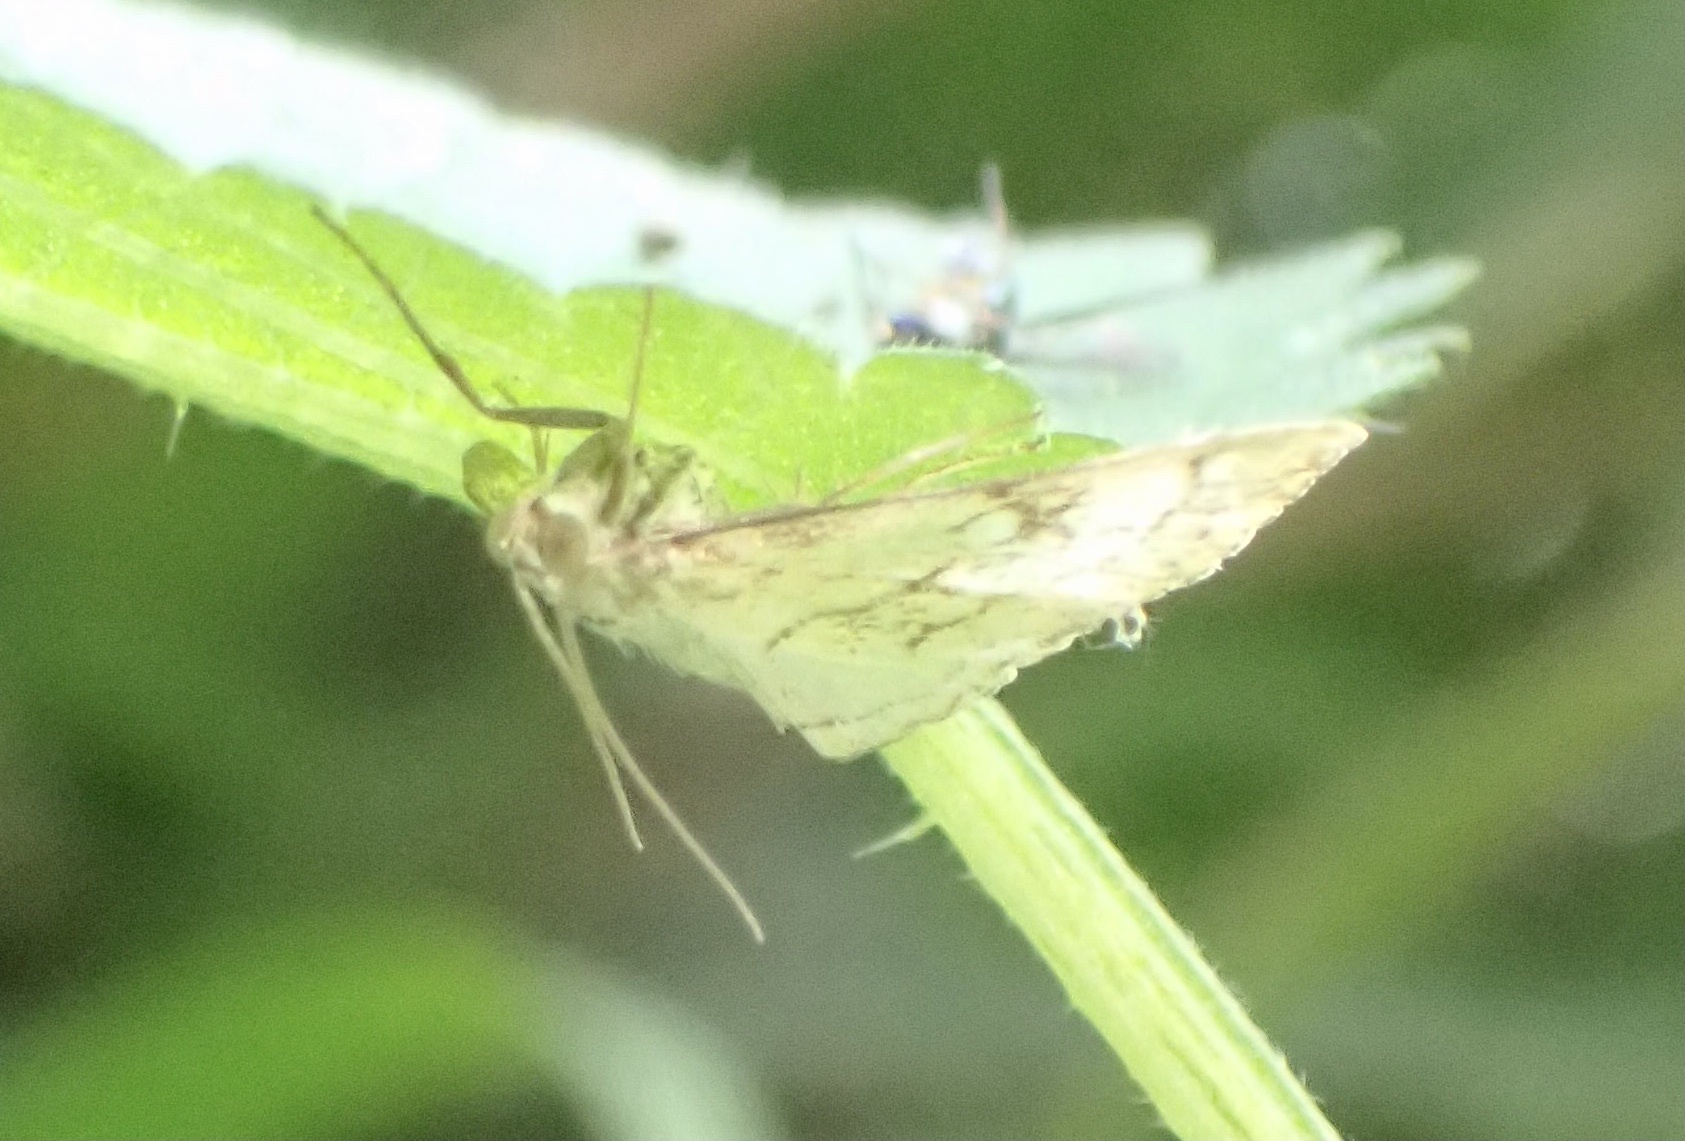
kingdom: Animalia
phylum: Arthropoda
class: Insecta
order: Lepidoptera
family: Crambidae
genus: Evergestis
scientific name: Evergestis pallidata
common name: Chequered pearl
